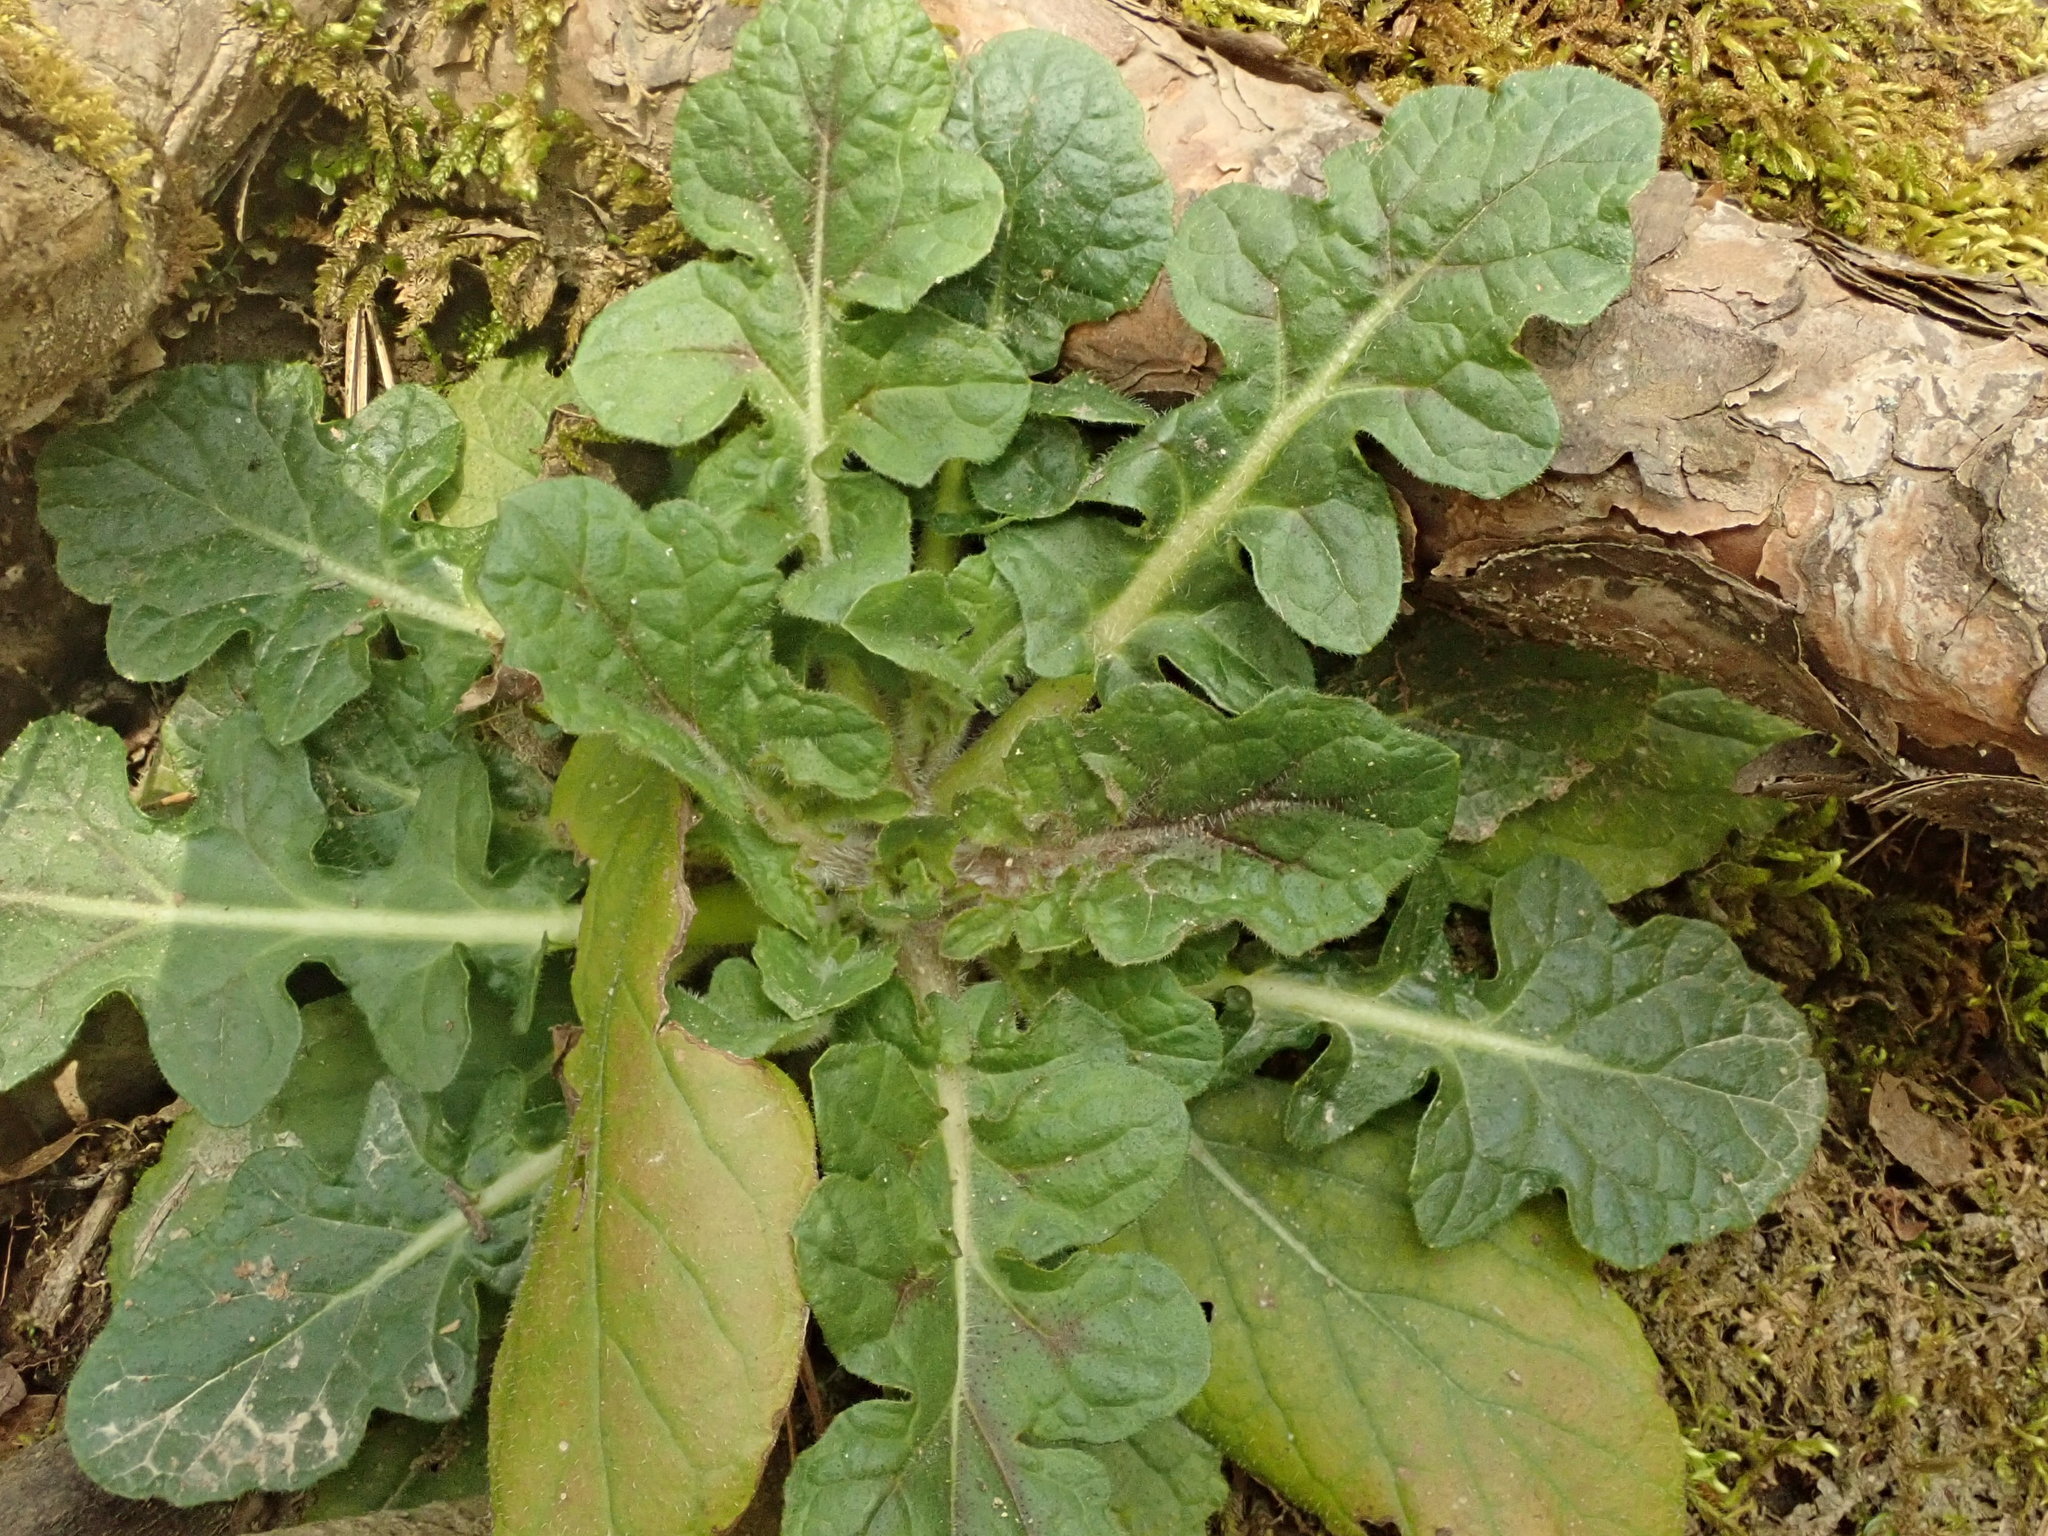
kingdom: Plantae
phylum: Tracheophyta
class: Magnoliopsida
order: Lamiales
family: Lamiaceae
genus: Salvia
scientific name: Salvia lyrata
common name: Cancerweed
